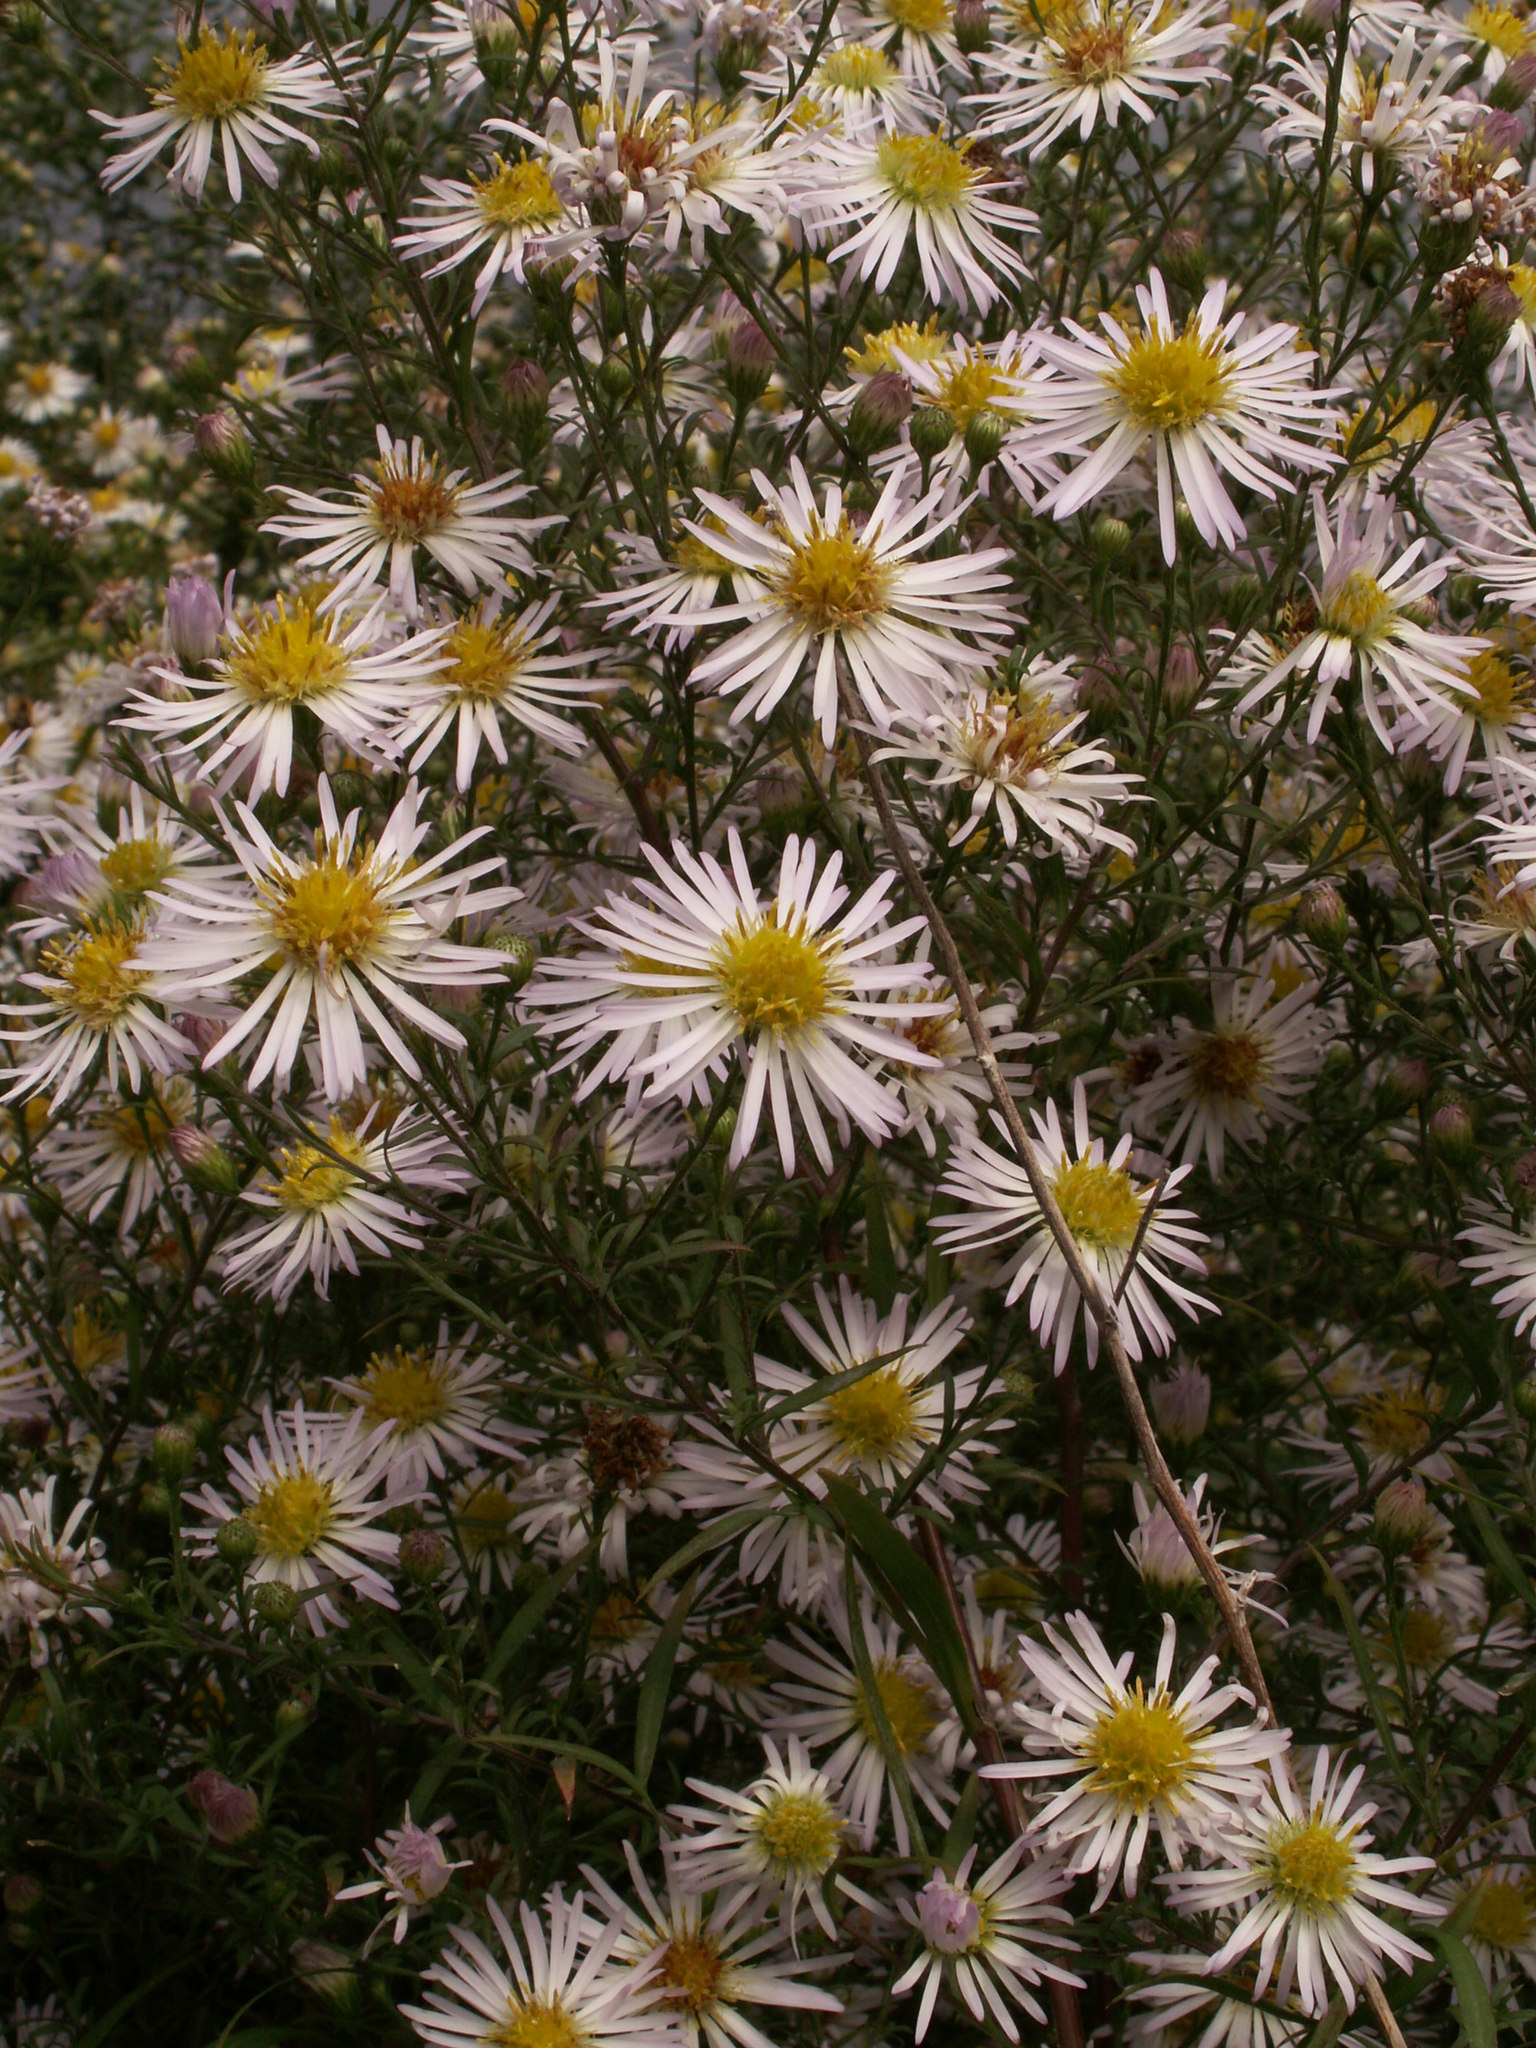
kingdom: Plantae
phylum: Tracheophyta
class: Magnoliopsida
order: Asterales
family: Asteraceae
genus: Symphyotrichum
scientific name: Symphyotrichum lanceolatum
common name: Panicled aster
